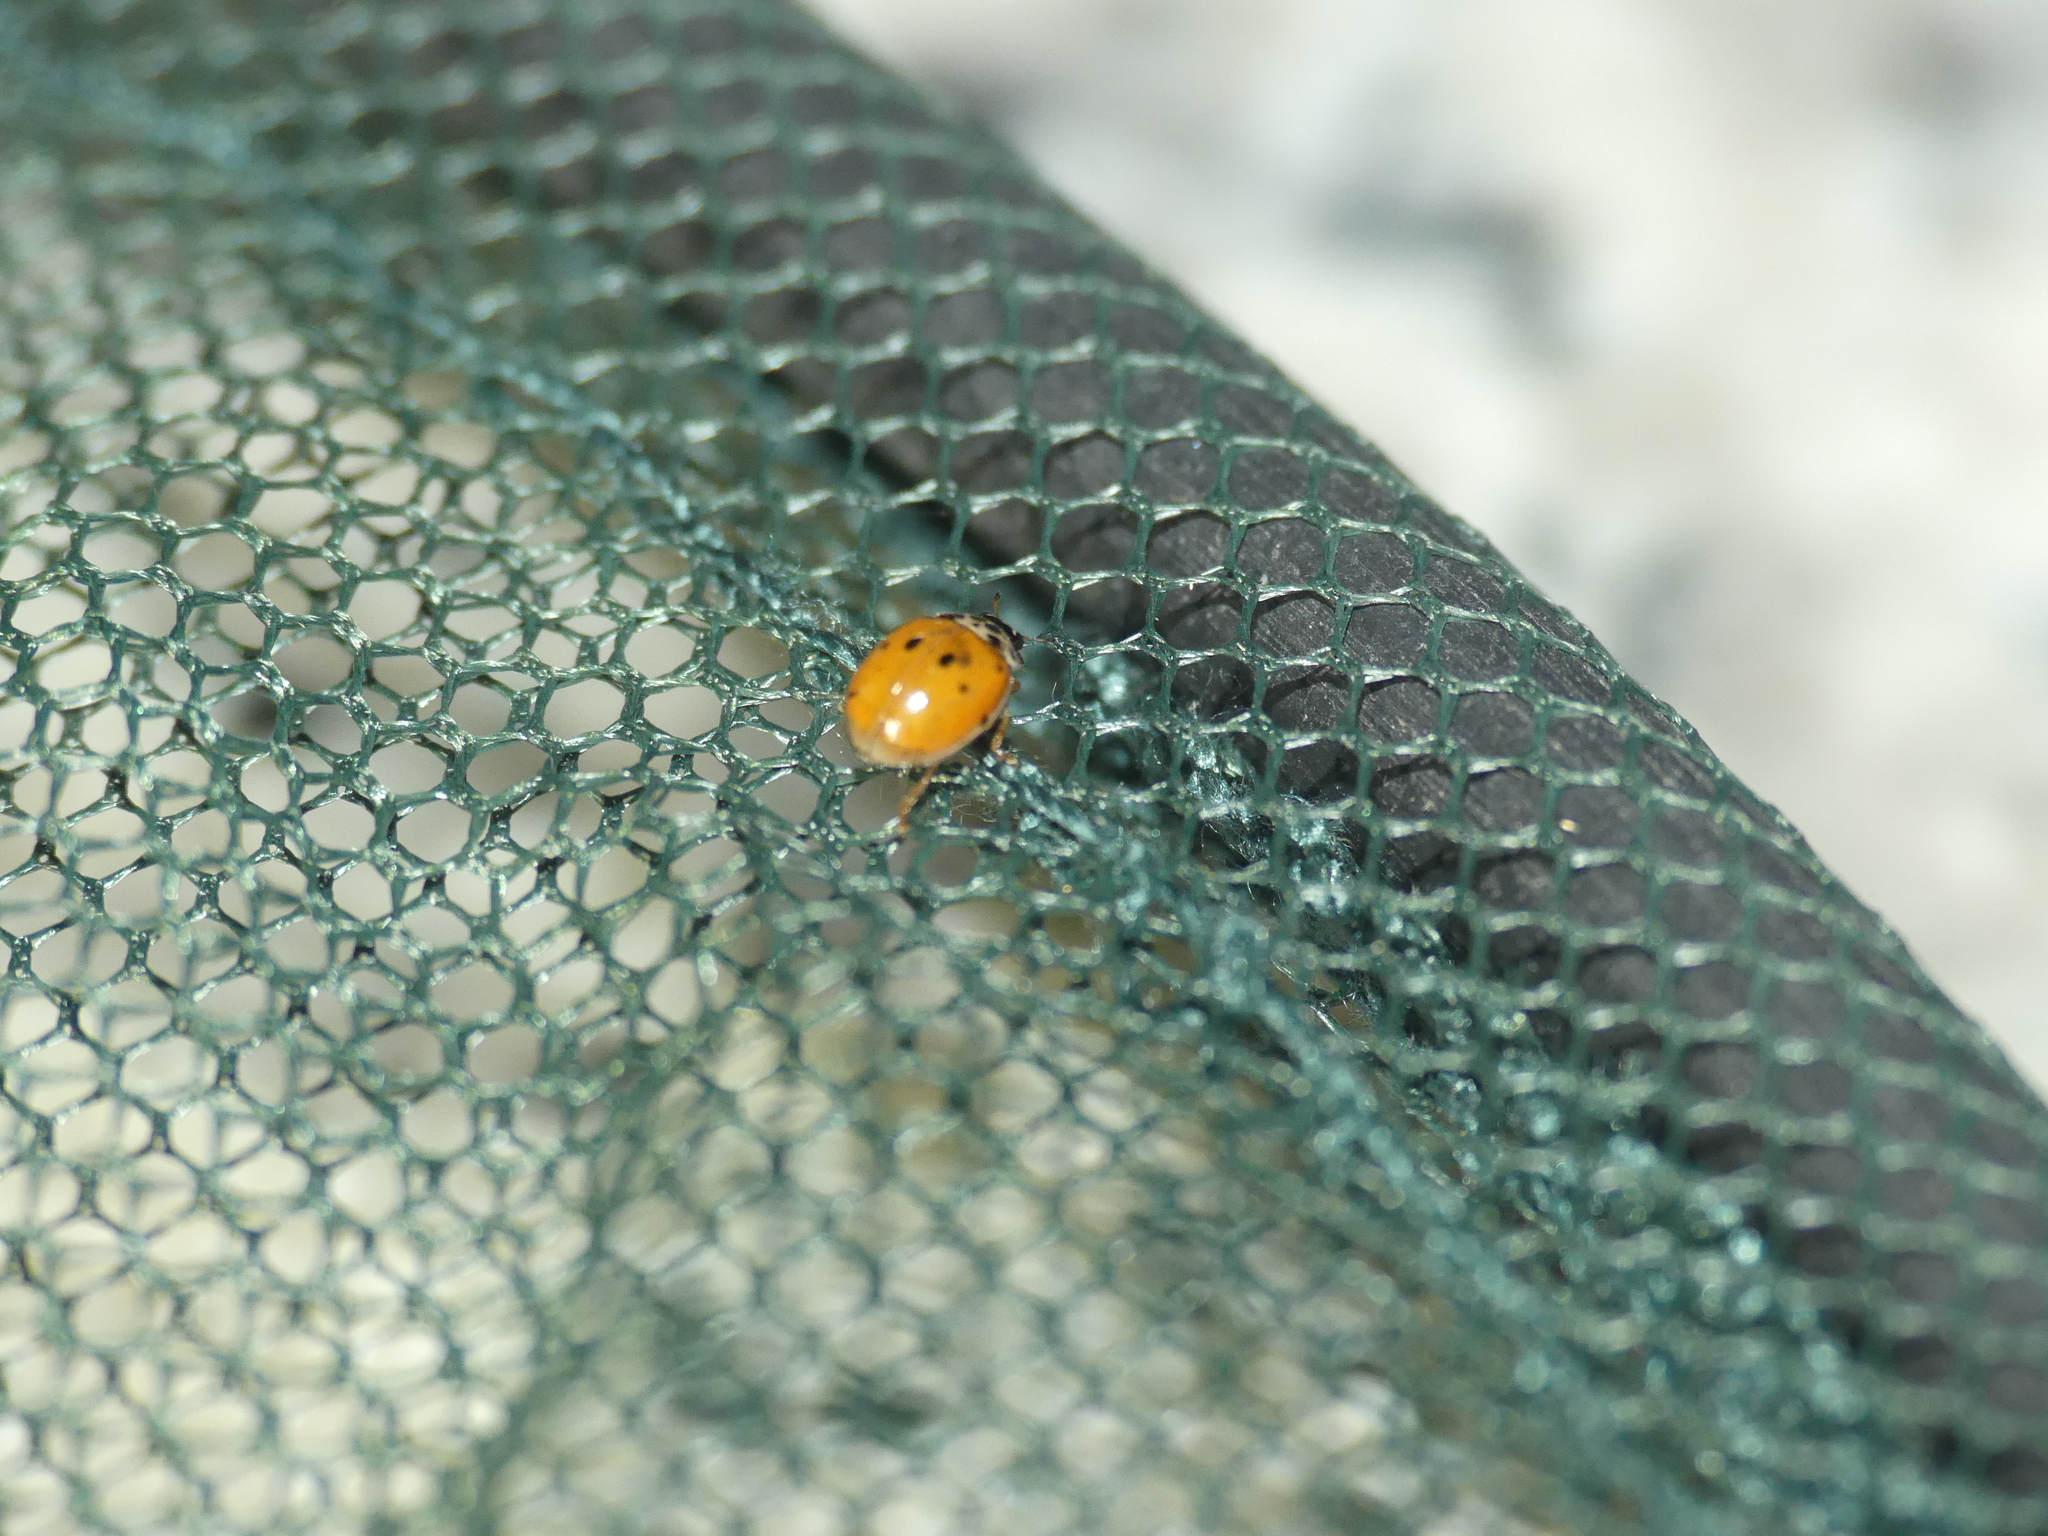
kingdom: Animalia
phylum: Arthropoda
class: Insecta
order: Coleoptera
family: Coccinellidae
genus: Adalia
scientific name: Adalia decempunctata
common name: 10-spot ladybird
